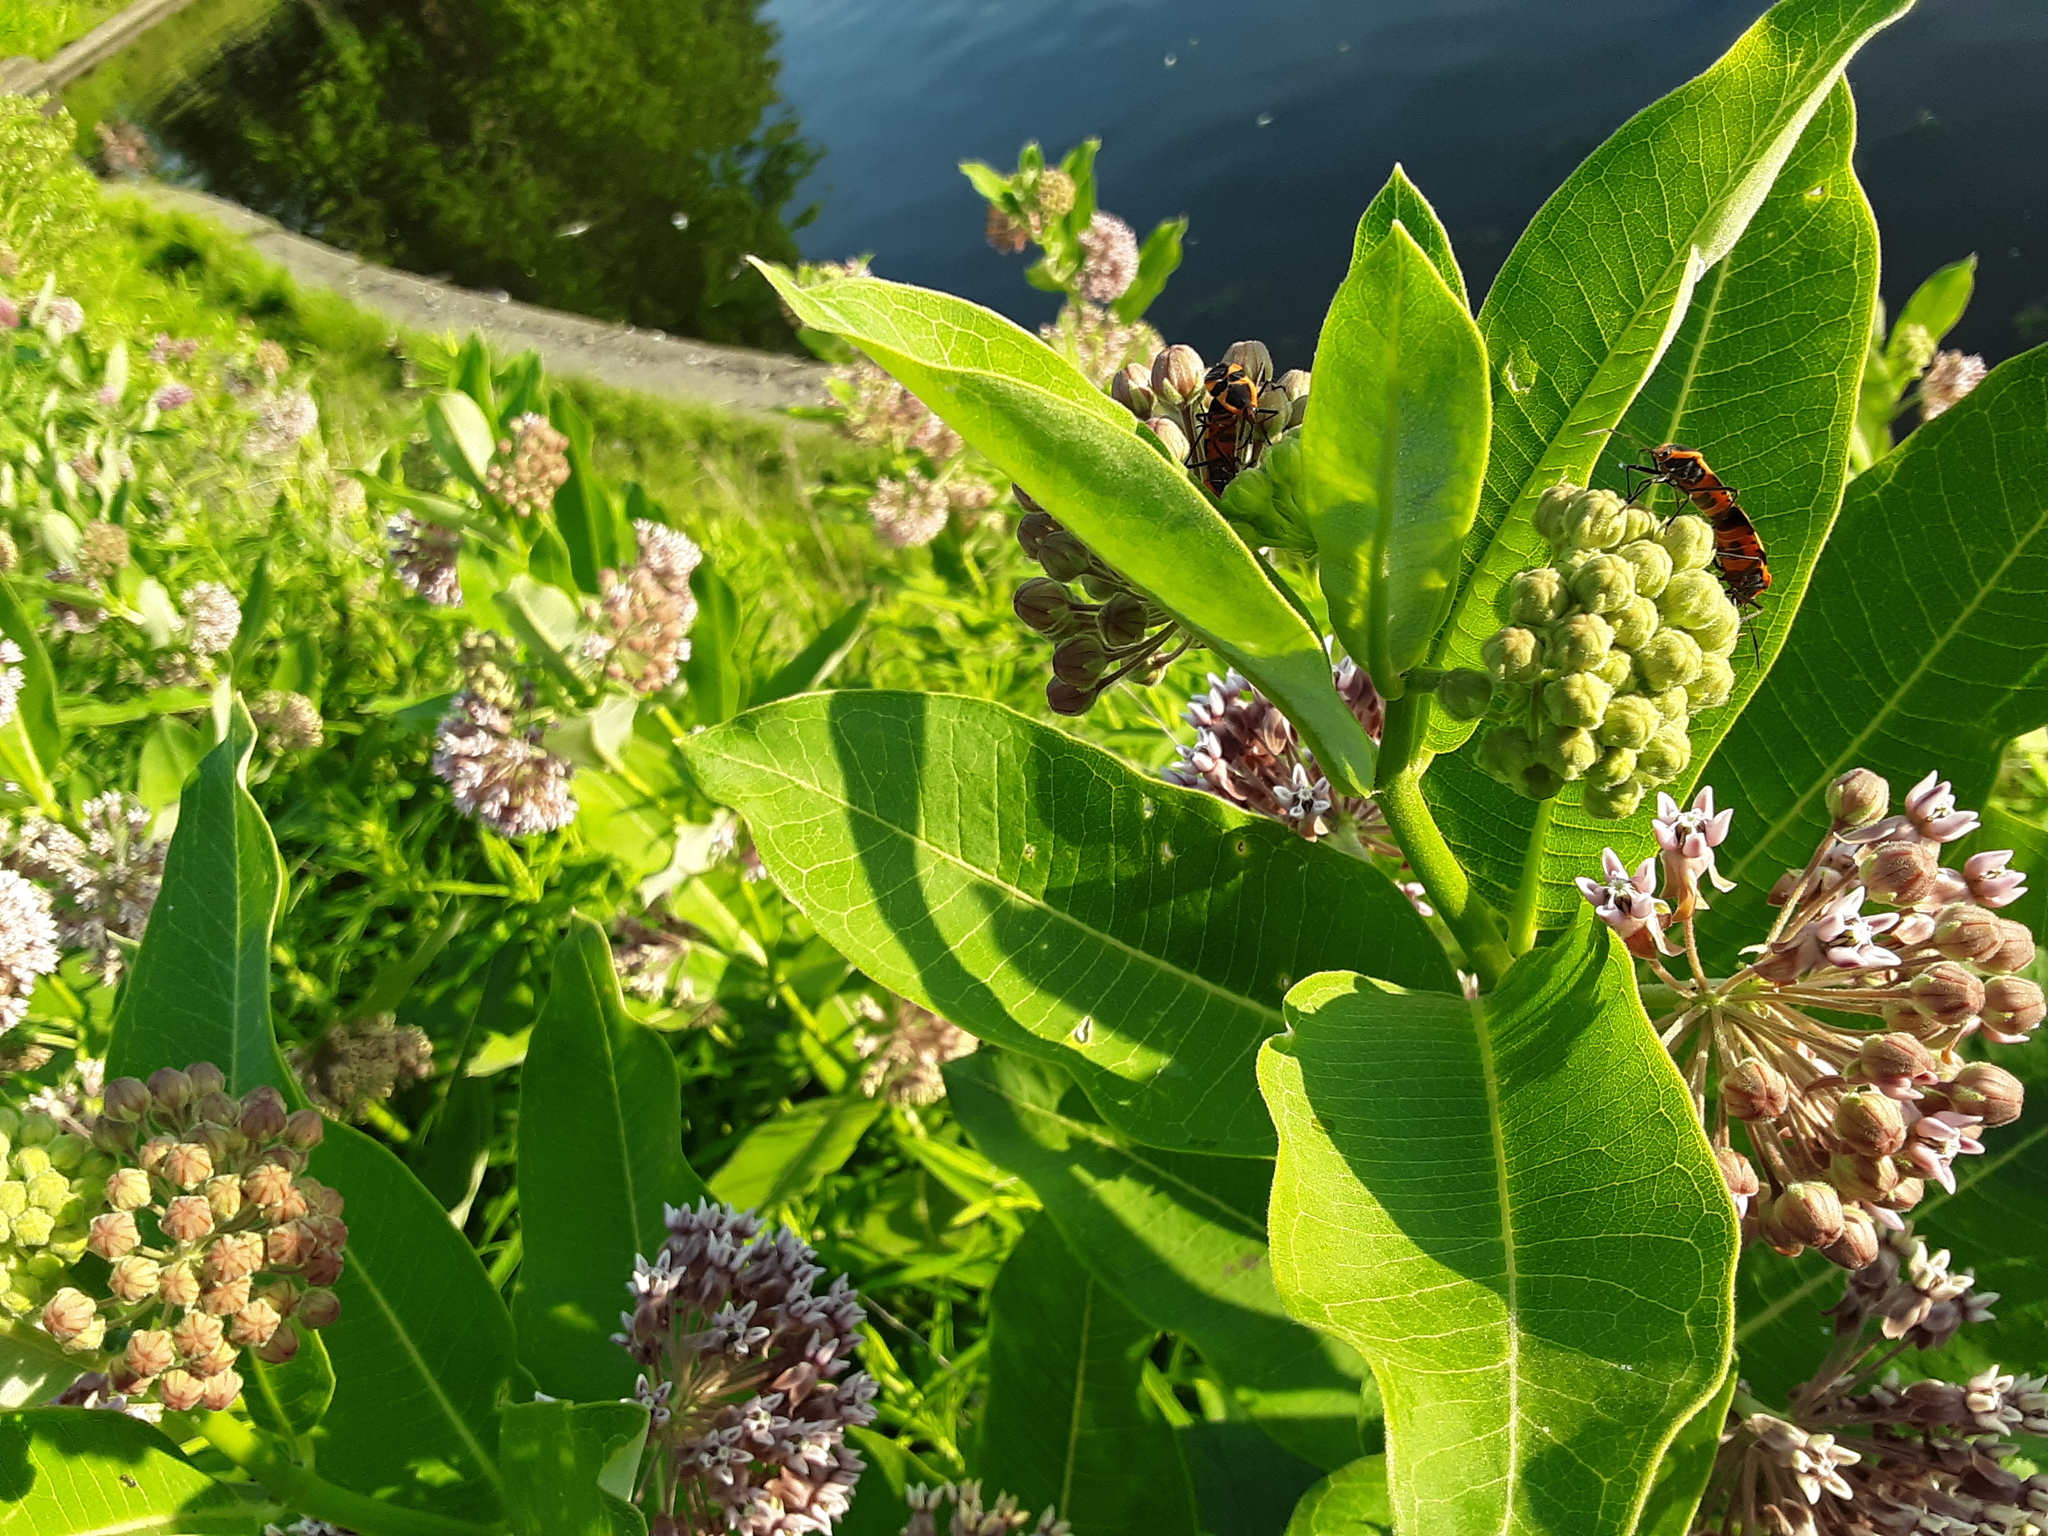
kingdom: Plantae
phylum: Tracheophyta
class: Magnoliopsida
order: Gentianales
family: Apocynaceae
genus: Asclepias
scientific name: Asclepias syriaca
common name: Common milkweed
